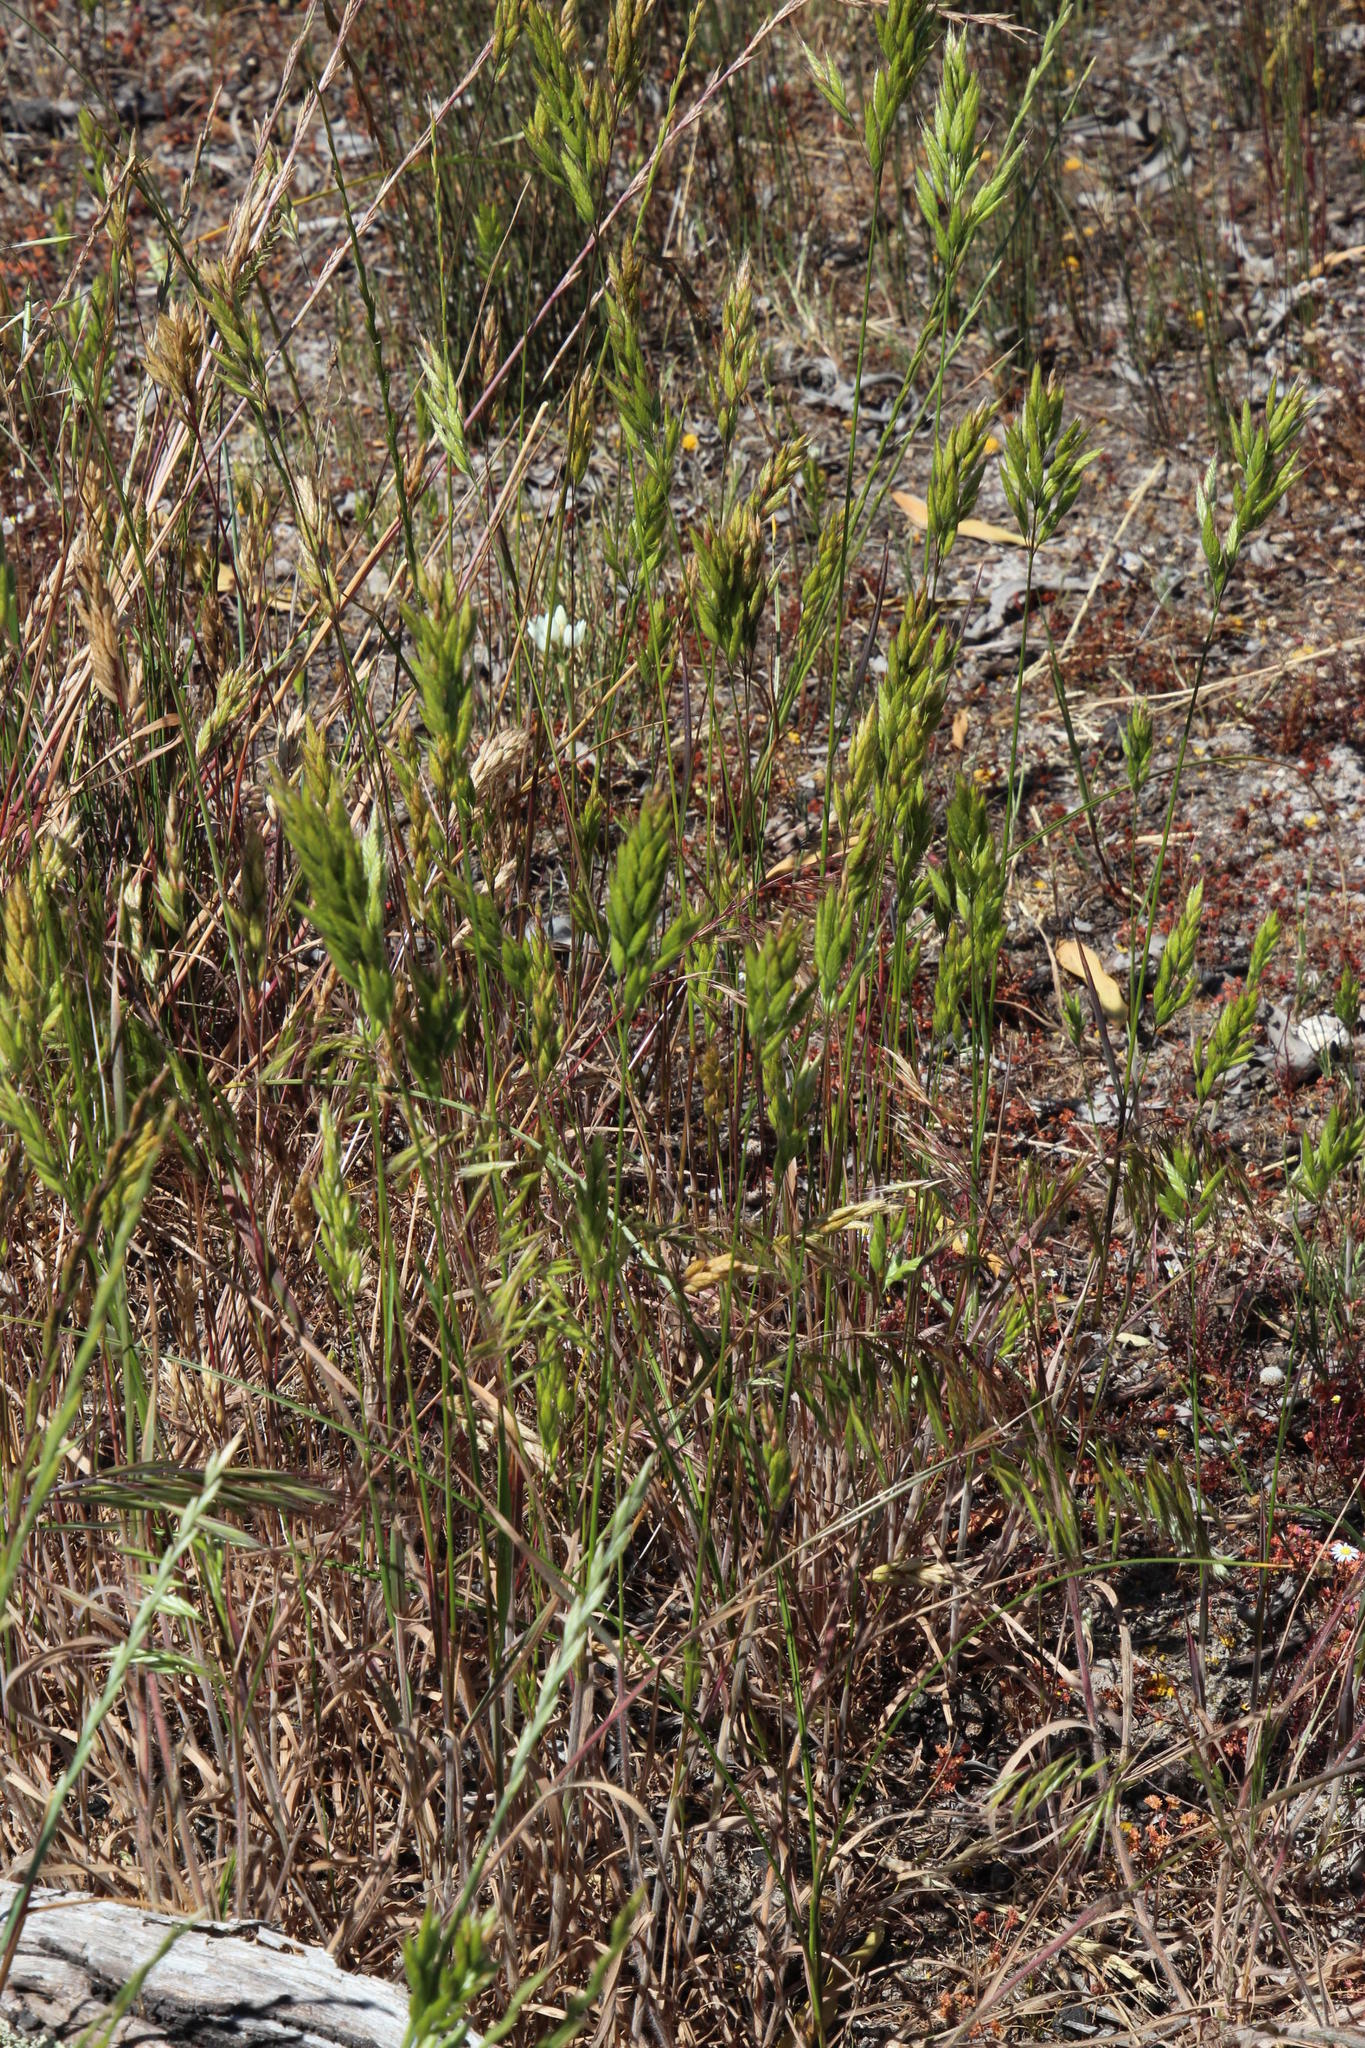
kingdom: Plantae
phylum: Tracheophyta
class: Liliopsida
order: Poales
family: Poaceae
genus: Bromus
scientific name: Bromus hordeaceus
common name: Soft brome
